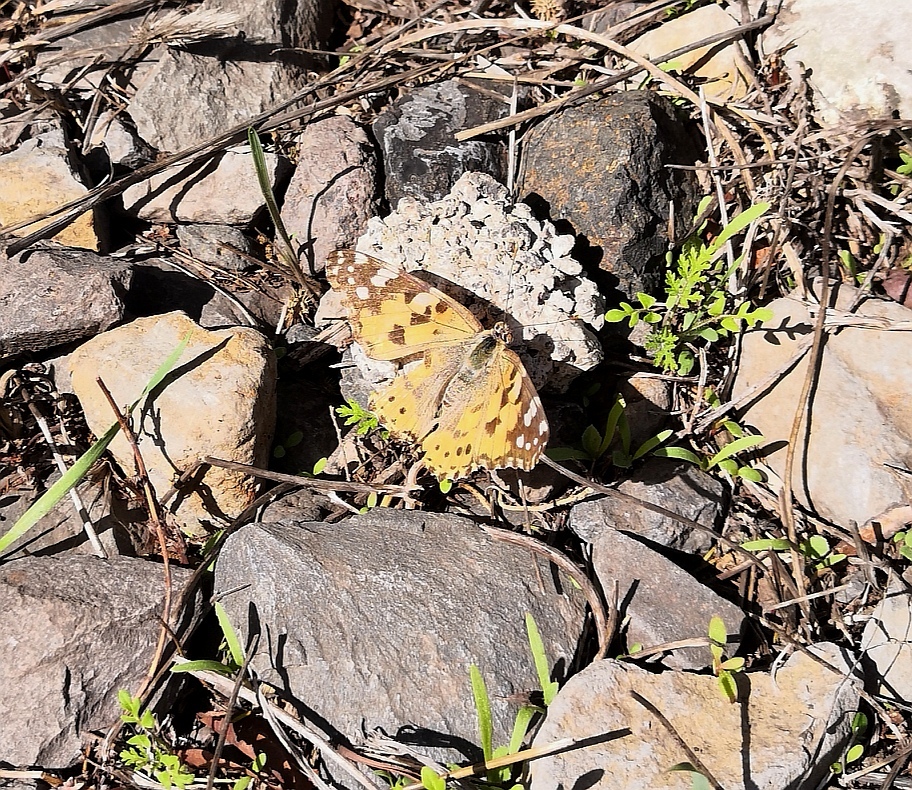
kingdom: Animalia
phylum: Arthropoda
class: Insecta
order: Lepidoptera
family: Nymphalidae
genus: Vanessa
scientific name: Vanessa cardui
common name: Painted lady
